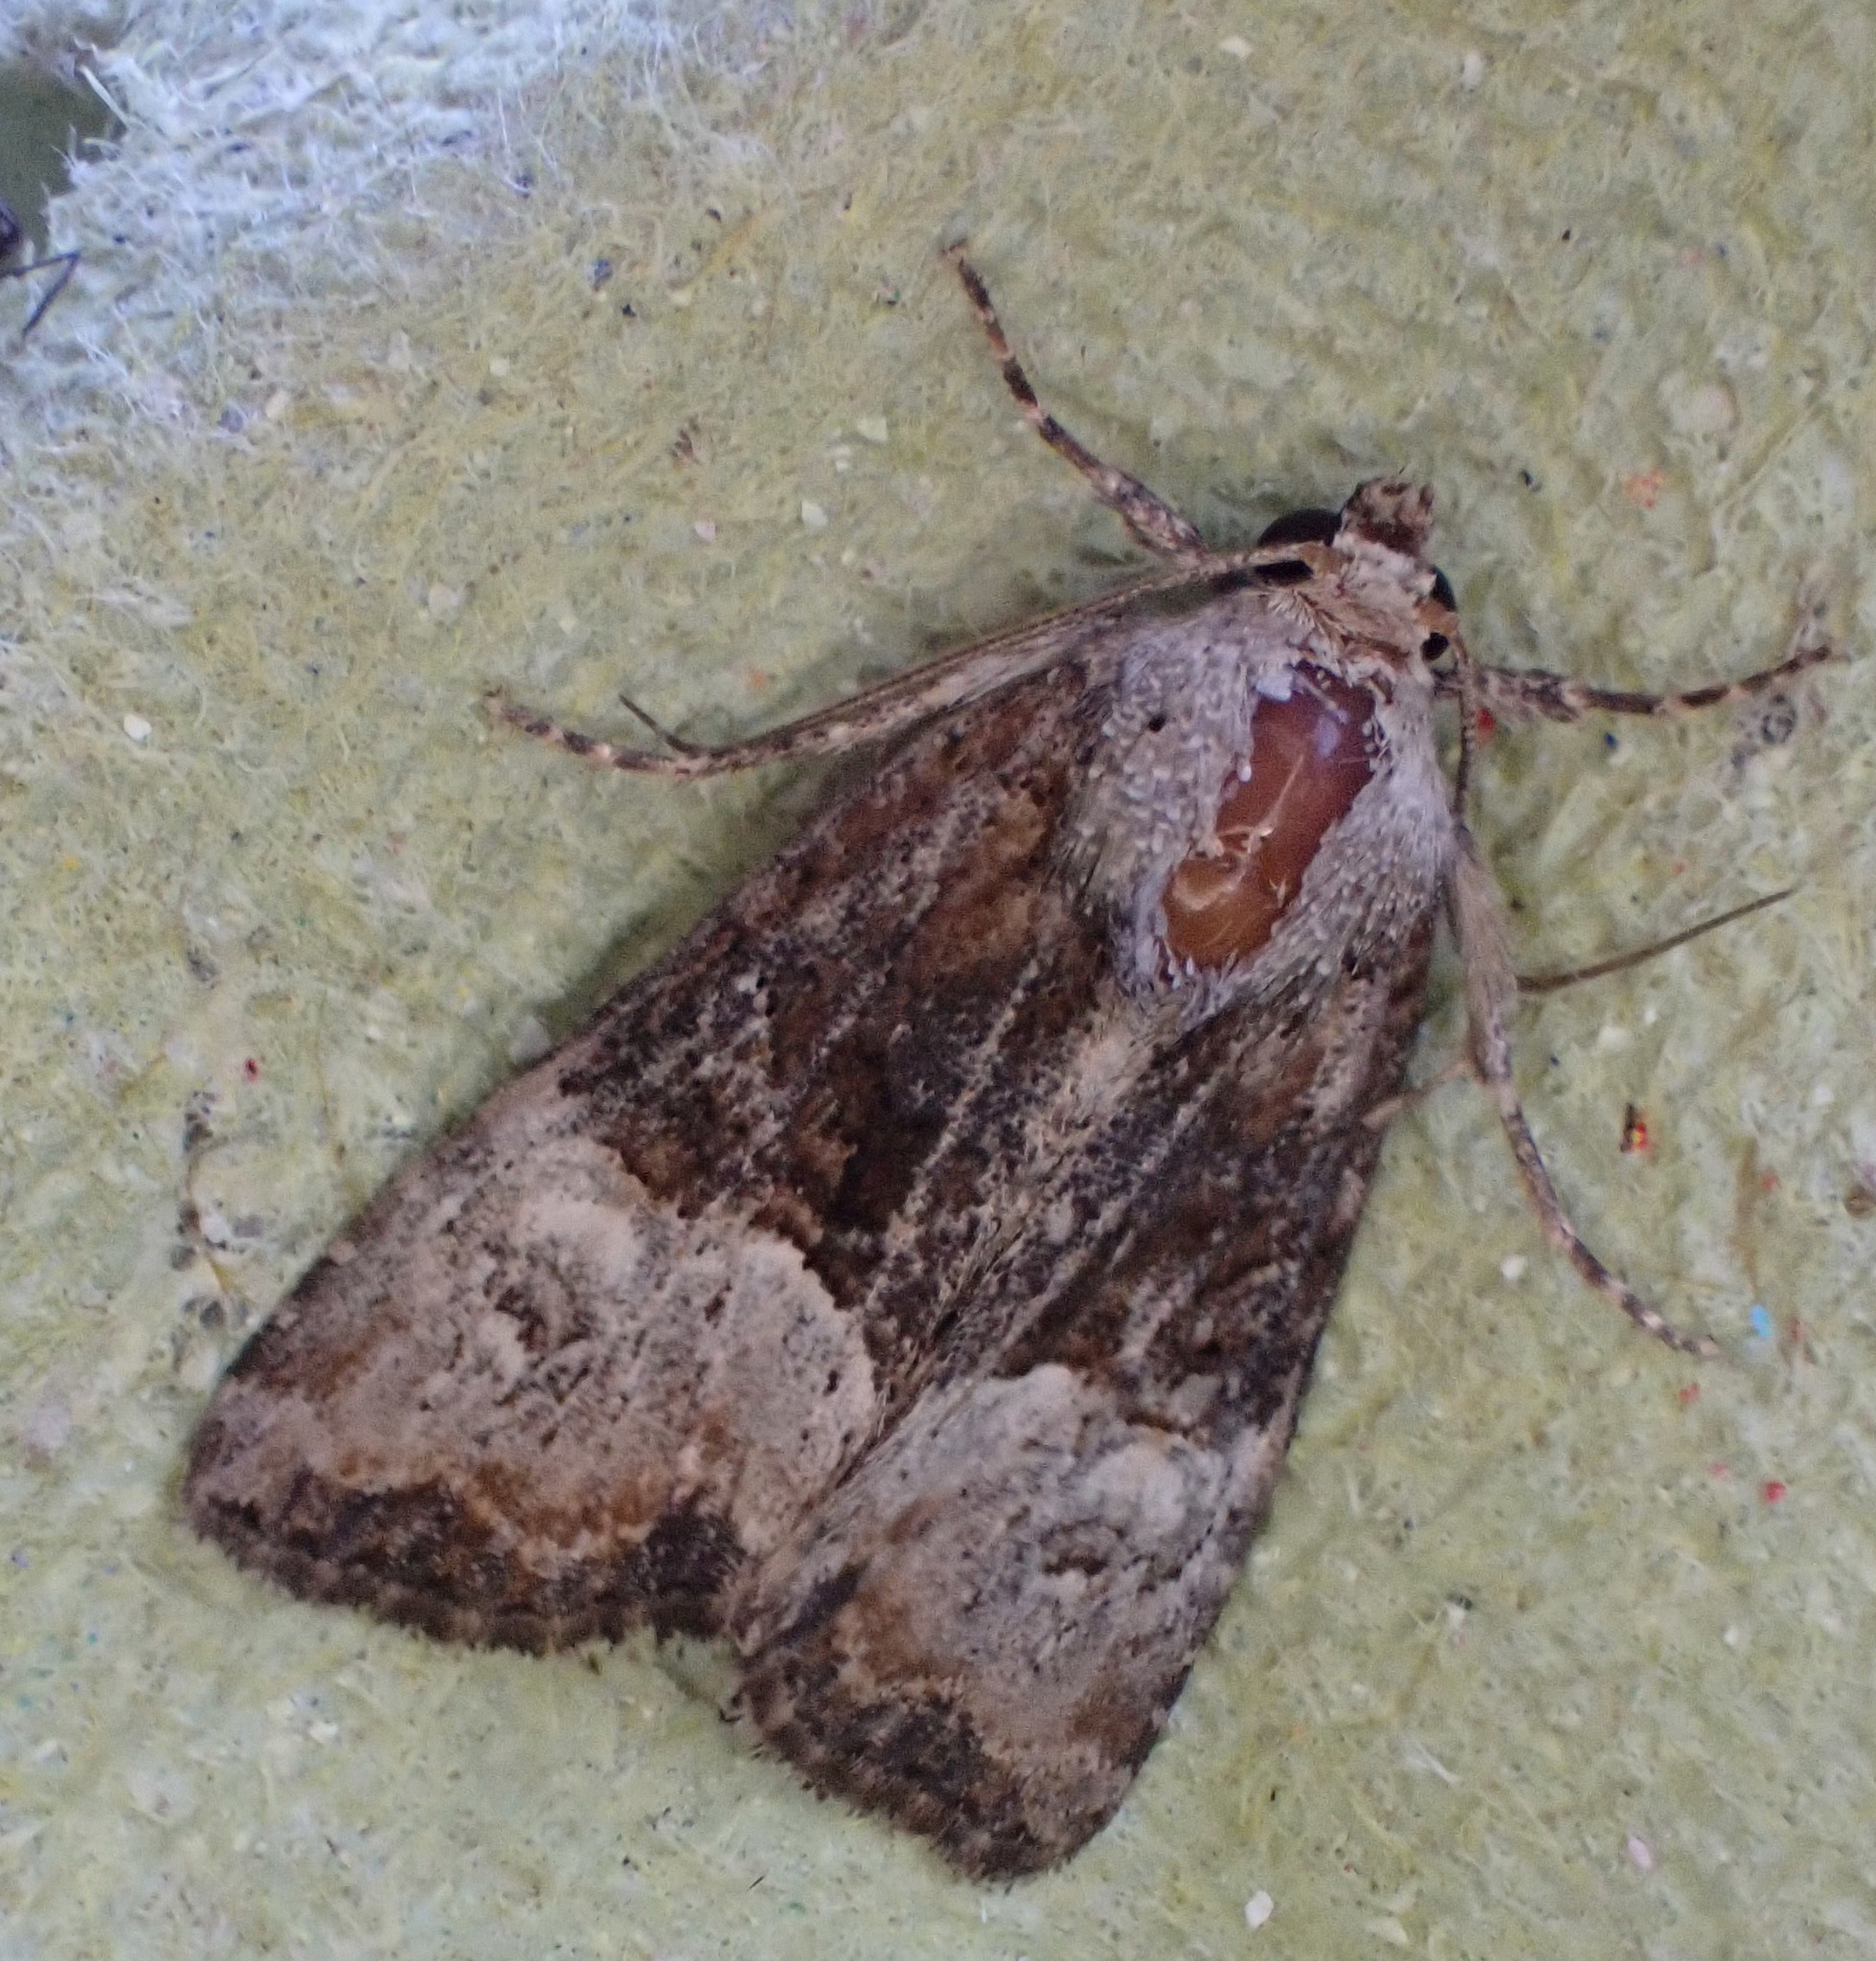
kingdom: Animalia
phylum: Arthropoda
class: Insecta
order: Lepidoptera
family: Noctuidae
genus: Mesoligia
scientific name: Mesoligia furuncula
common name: Cloaked minor
